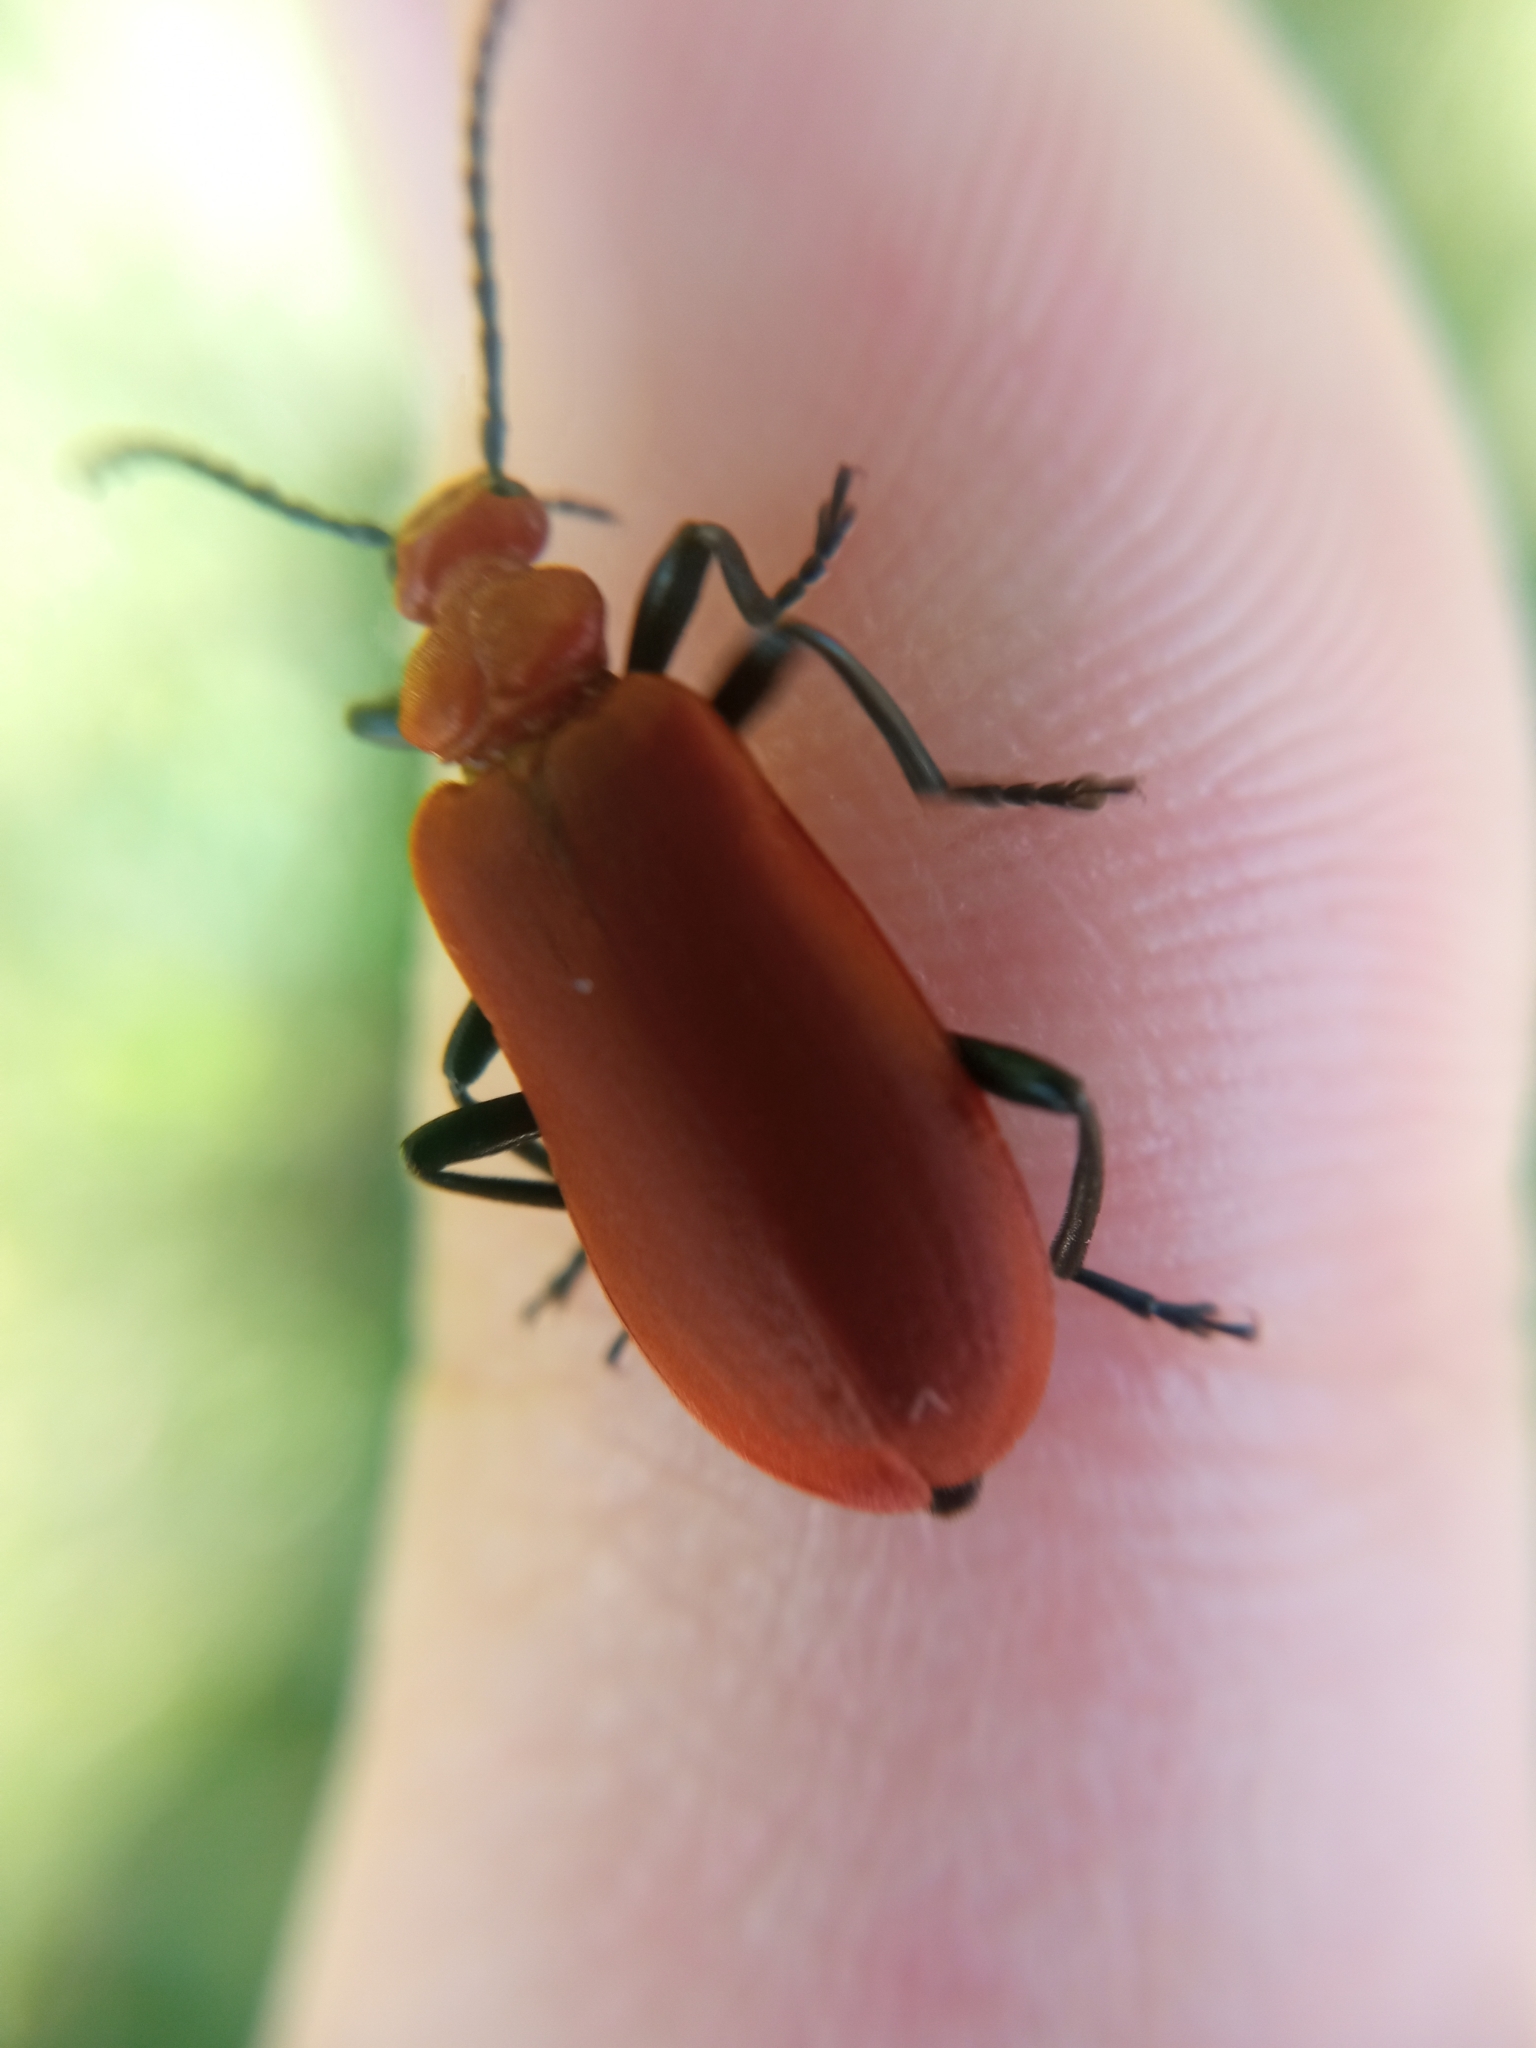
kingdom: Animalia
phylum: Arthropoda
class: Insecta
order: Coleoptera
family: Pyrochroidae
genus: Pyrochroa
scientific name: Pyrochroa serraticornis
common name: Red-headed cardinal beetle
